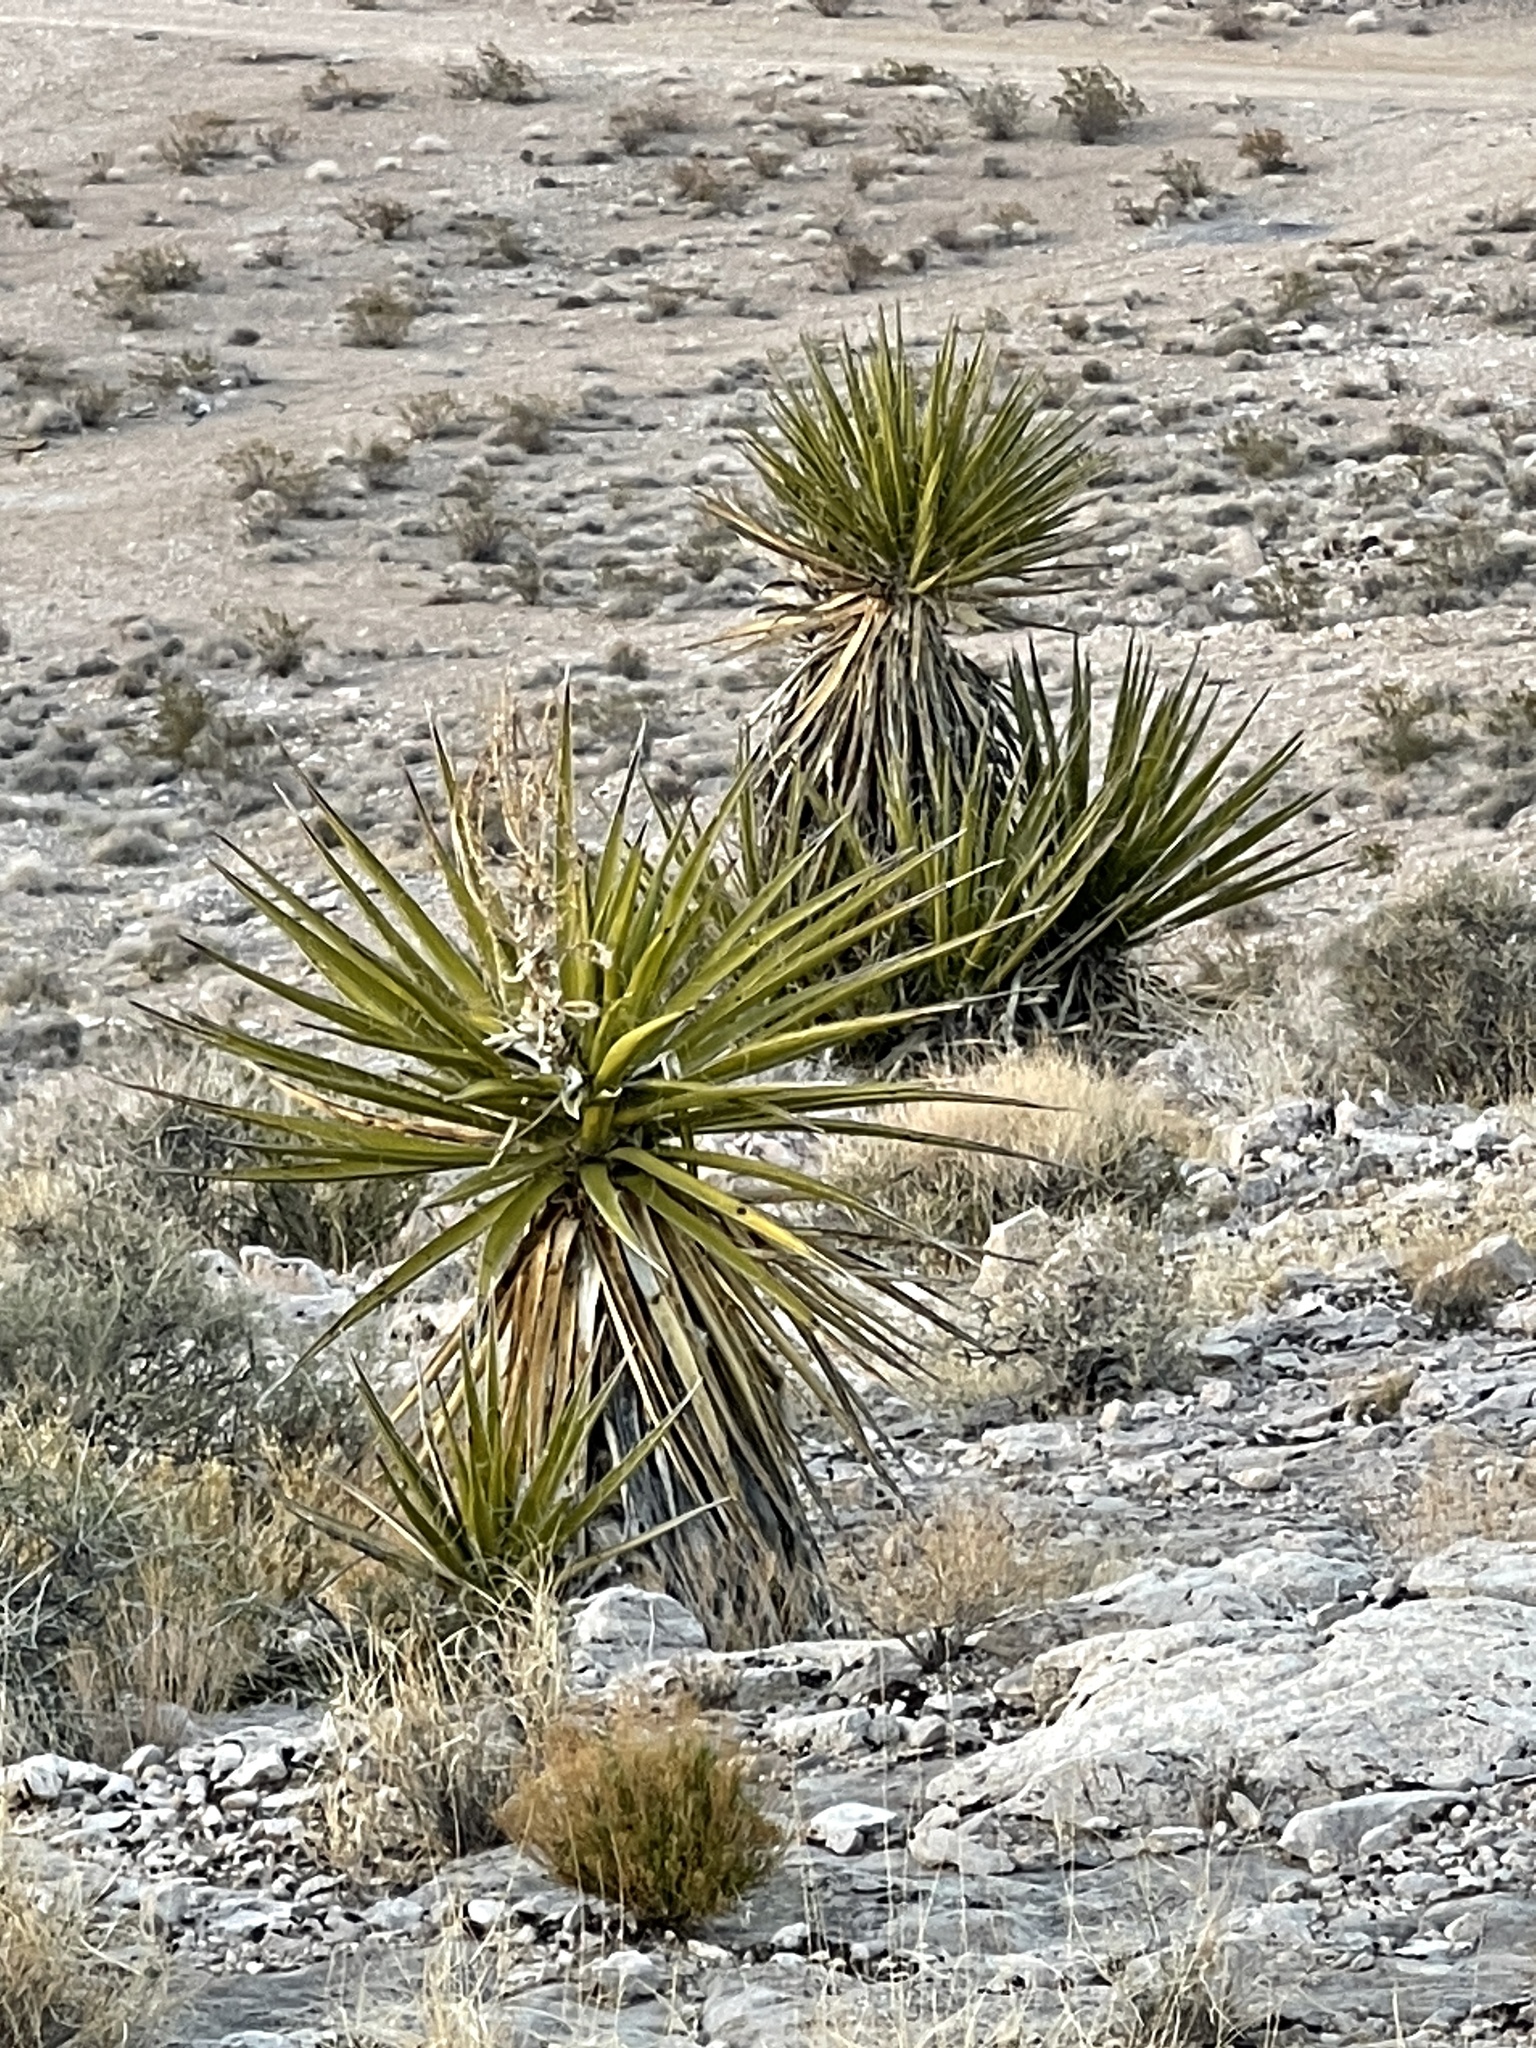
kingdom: Plantae
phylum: Tracheophyta
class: Liliopsida
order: Asparagales
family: Asparagaceae
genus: Yucca
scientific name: Yucca schidigera
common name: Mojave yucca
